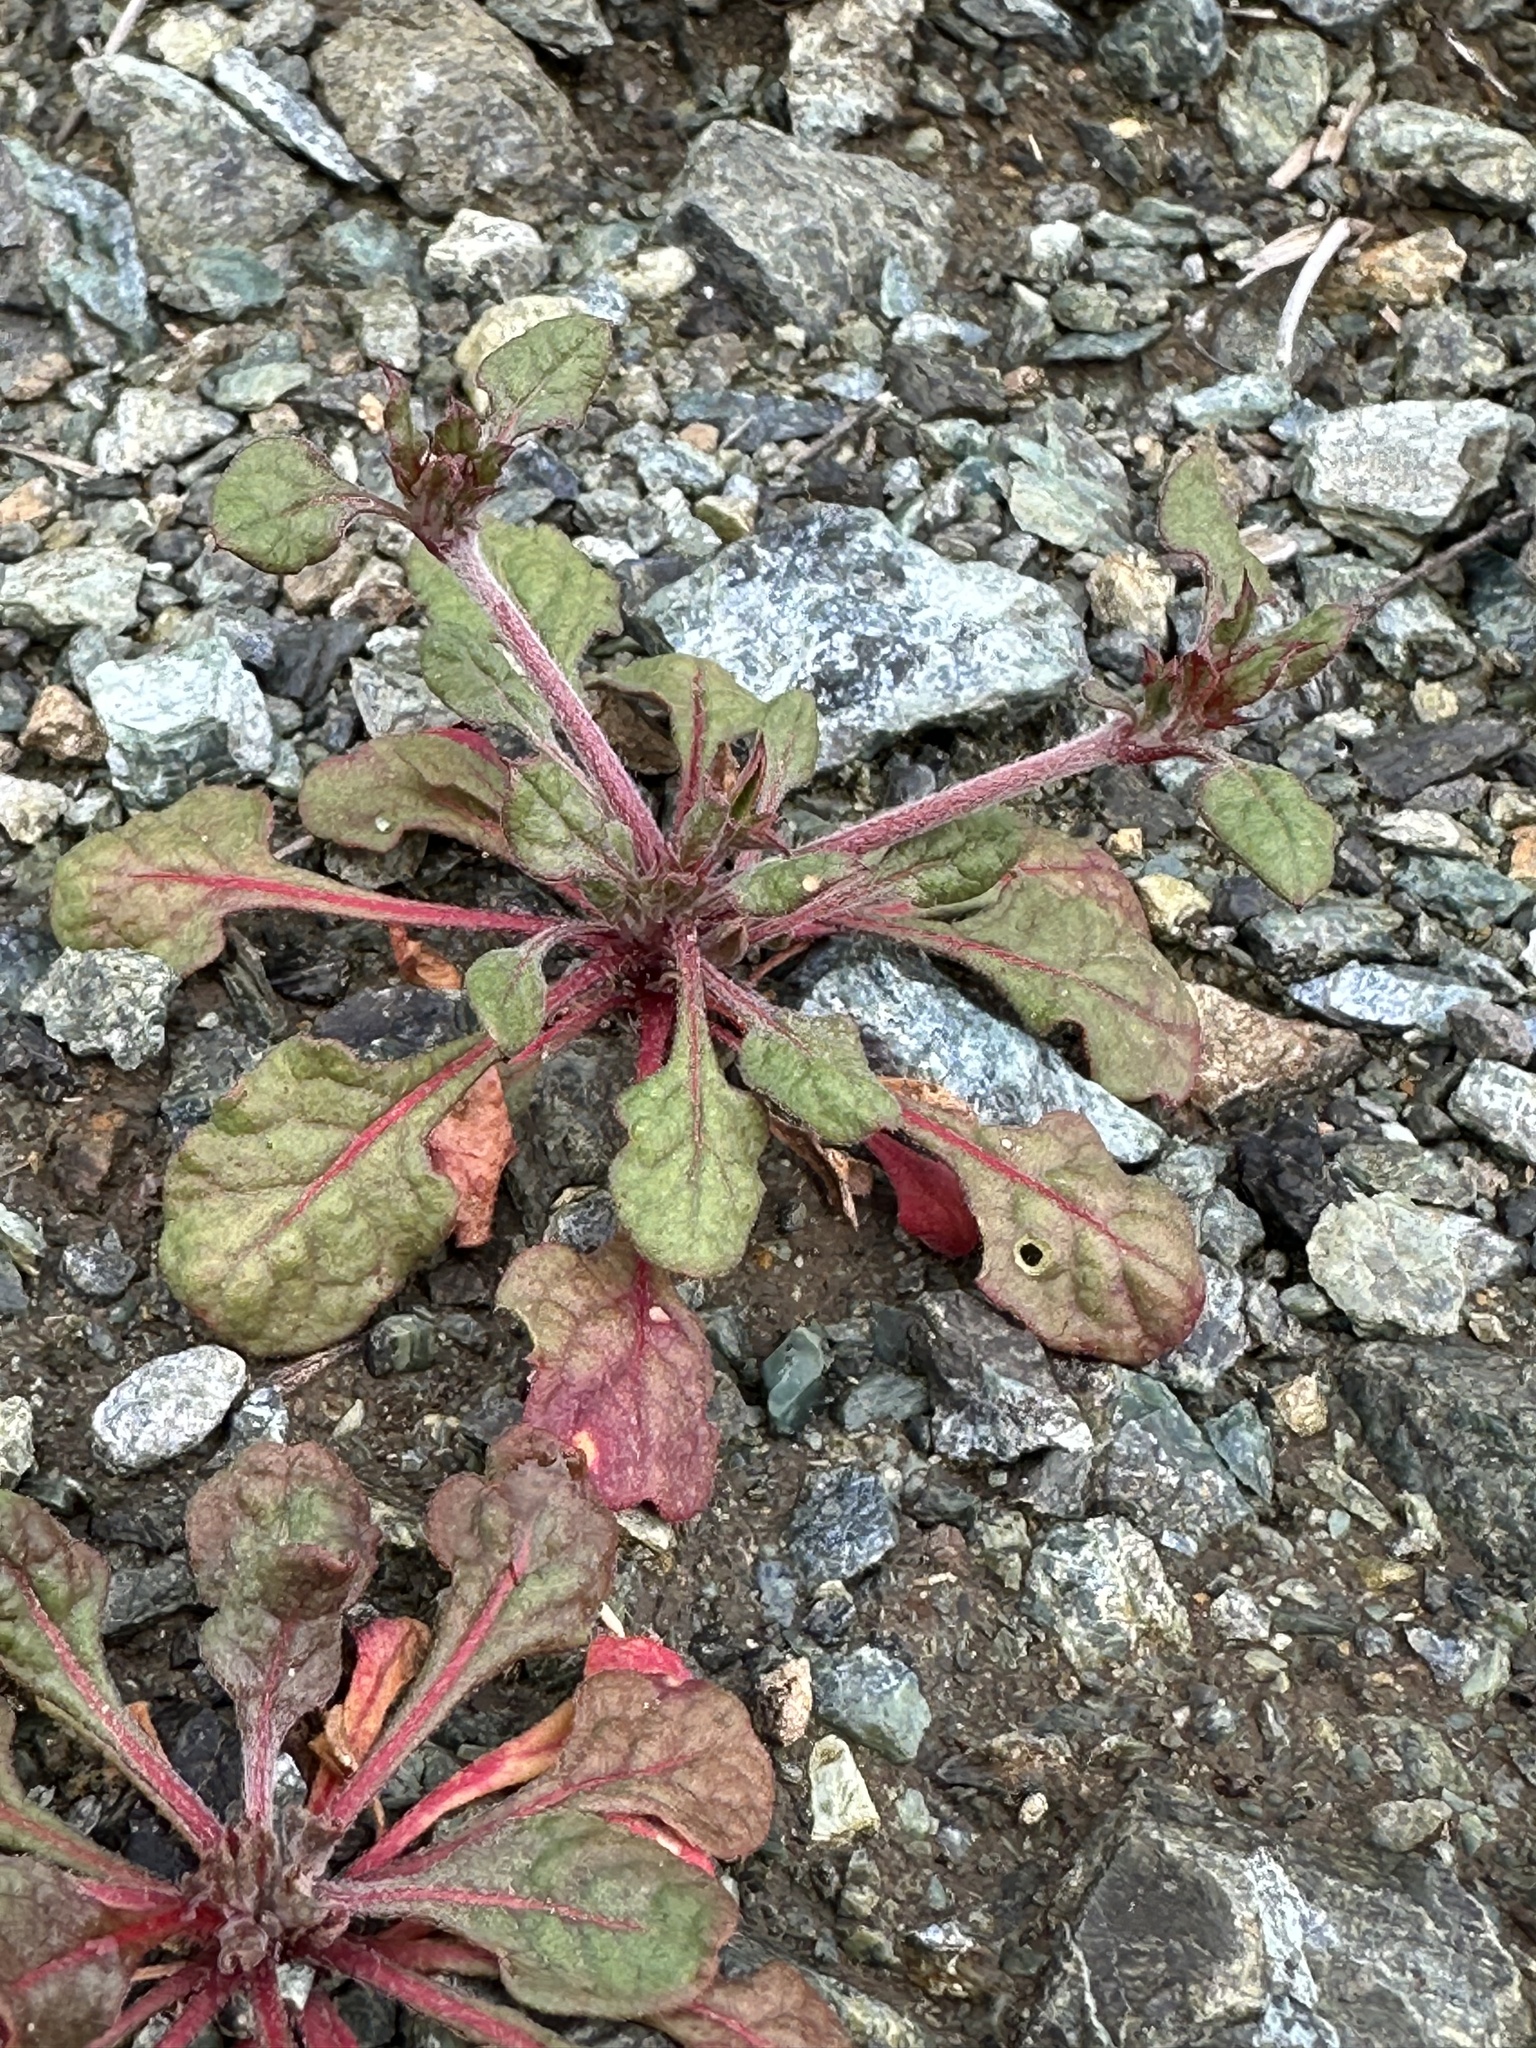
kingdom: Plantae
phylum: Tracheophyta
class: Magnoliopsida
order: Caryophyllales
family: Polygonaceae
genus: Chorizanthe
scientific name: Chorizanthe breweri
